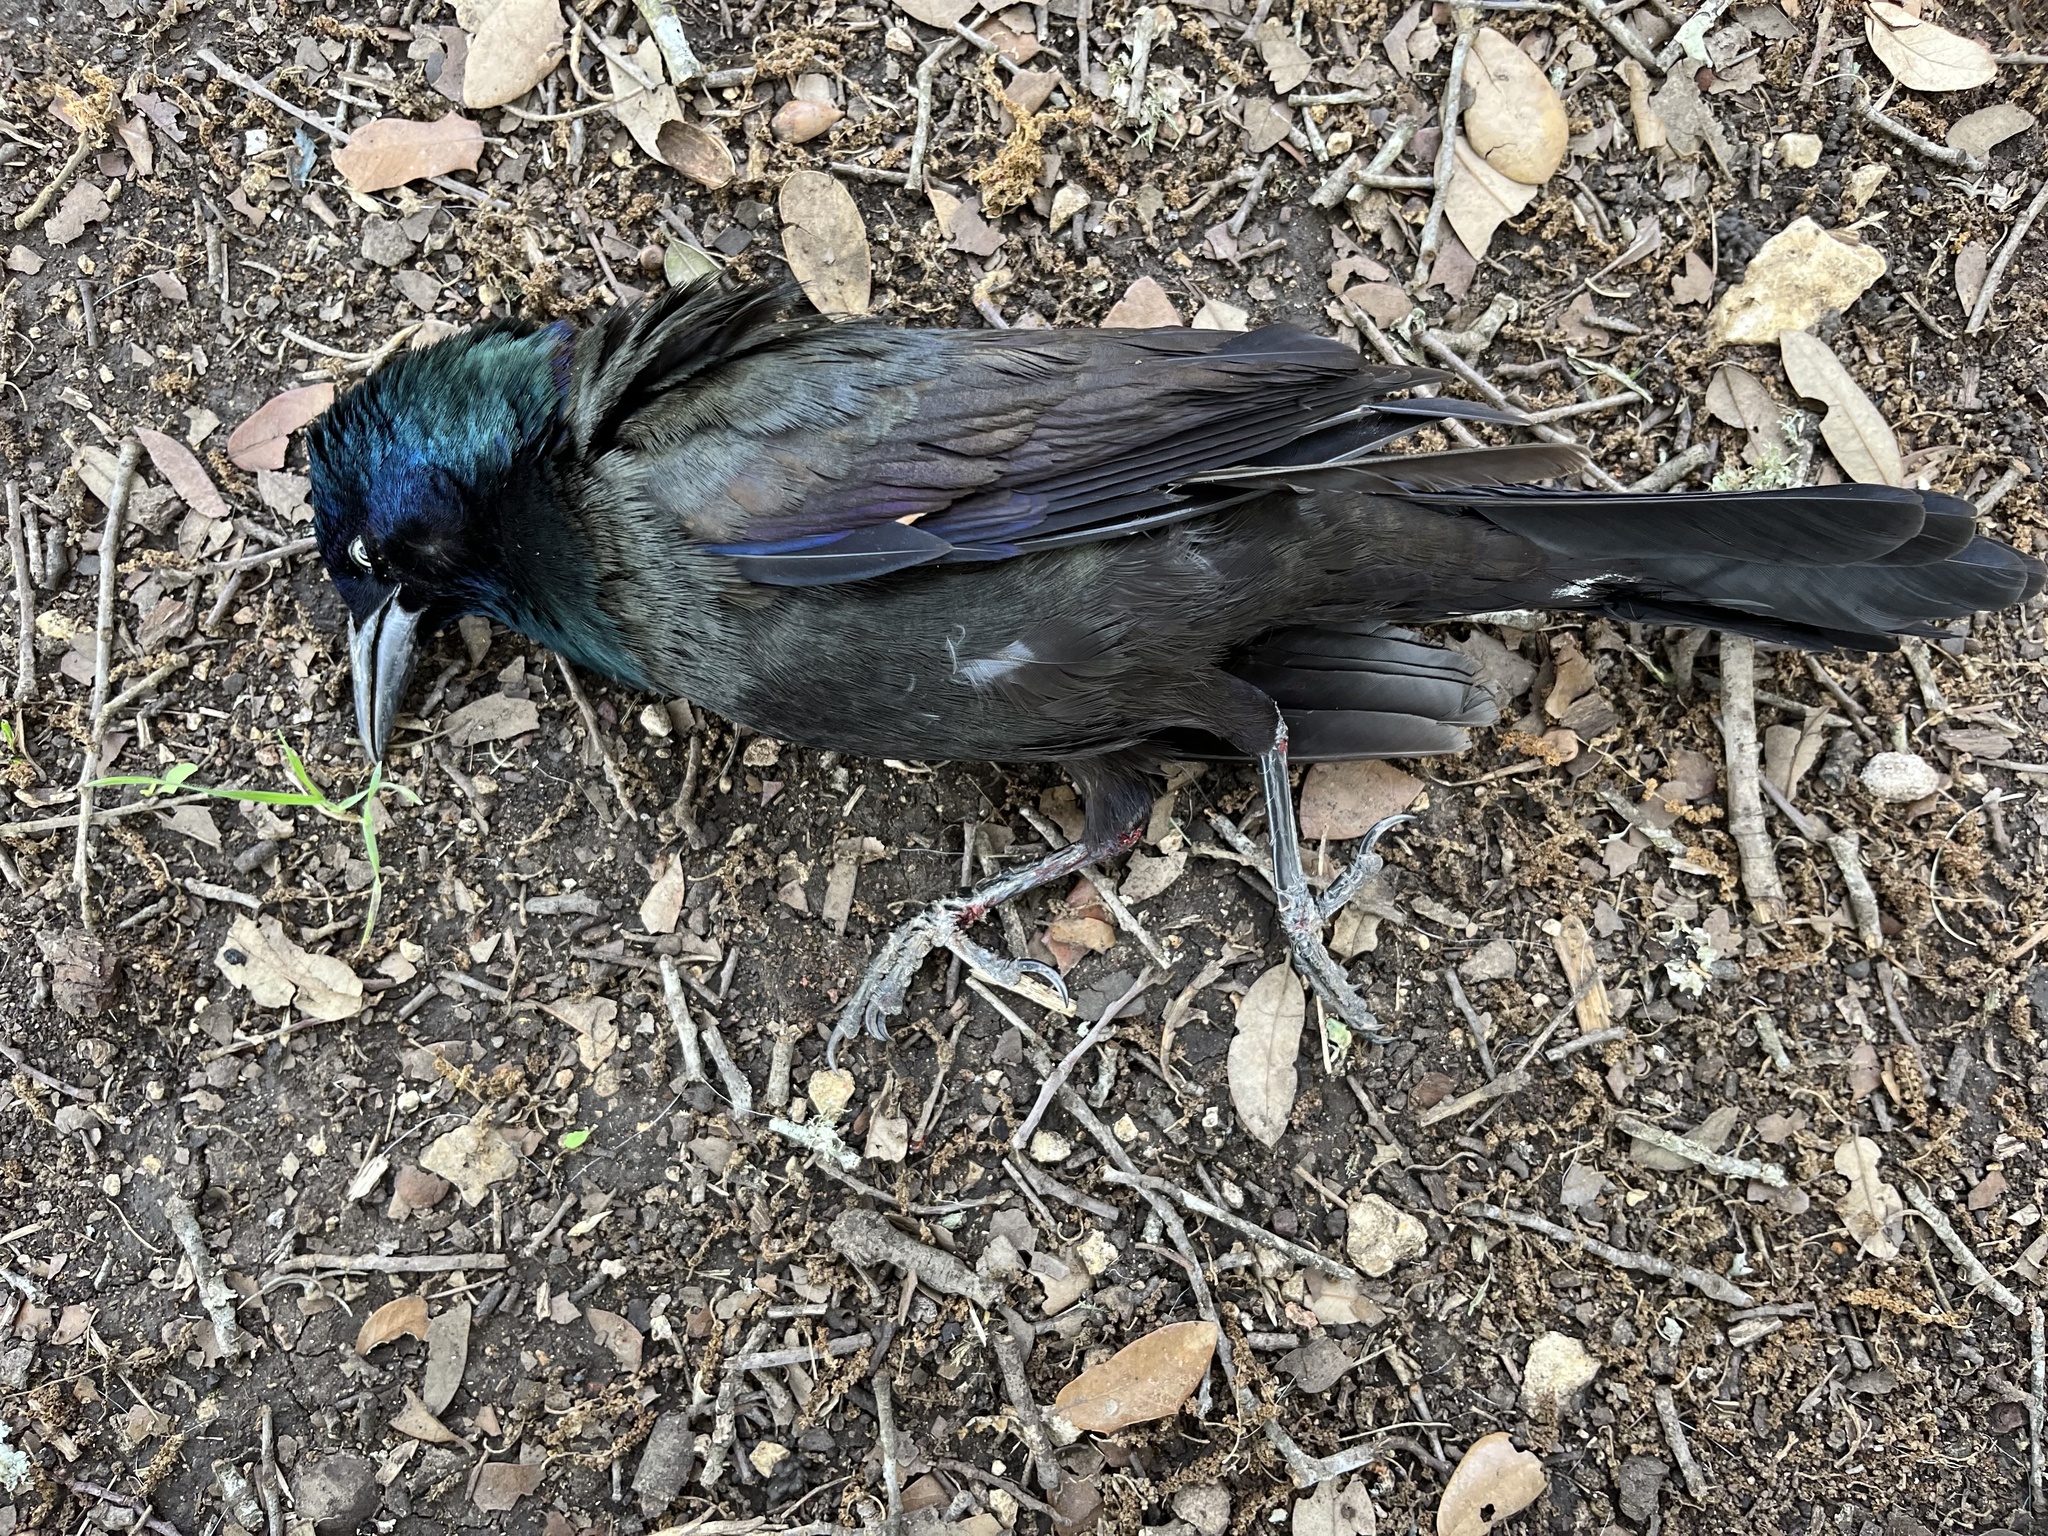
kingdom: Animalia
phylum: Chordata
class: Aves
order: Passeriformes
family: Icteridae
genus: Quiscalus
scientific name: Quiscalus quiscula
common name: Common grackle
